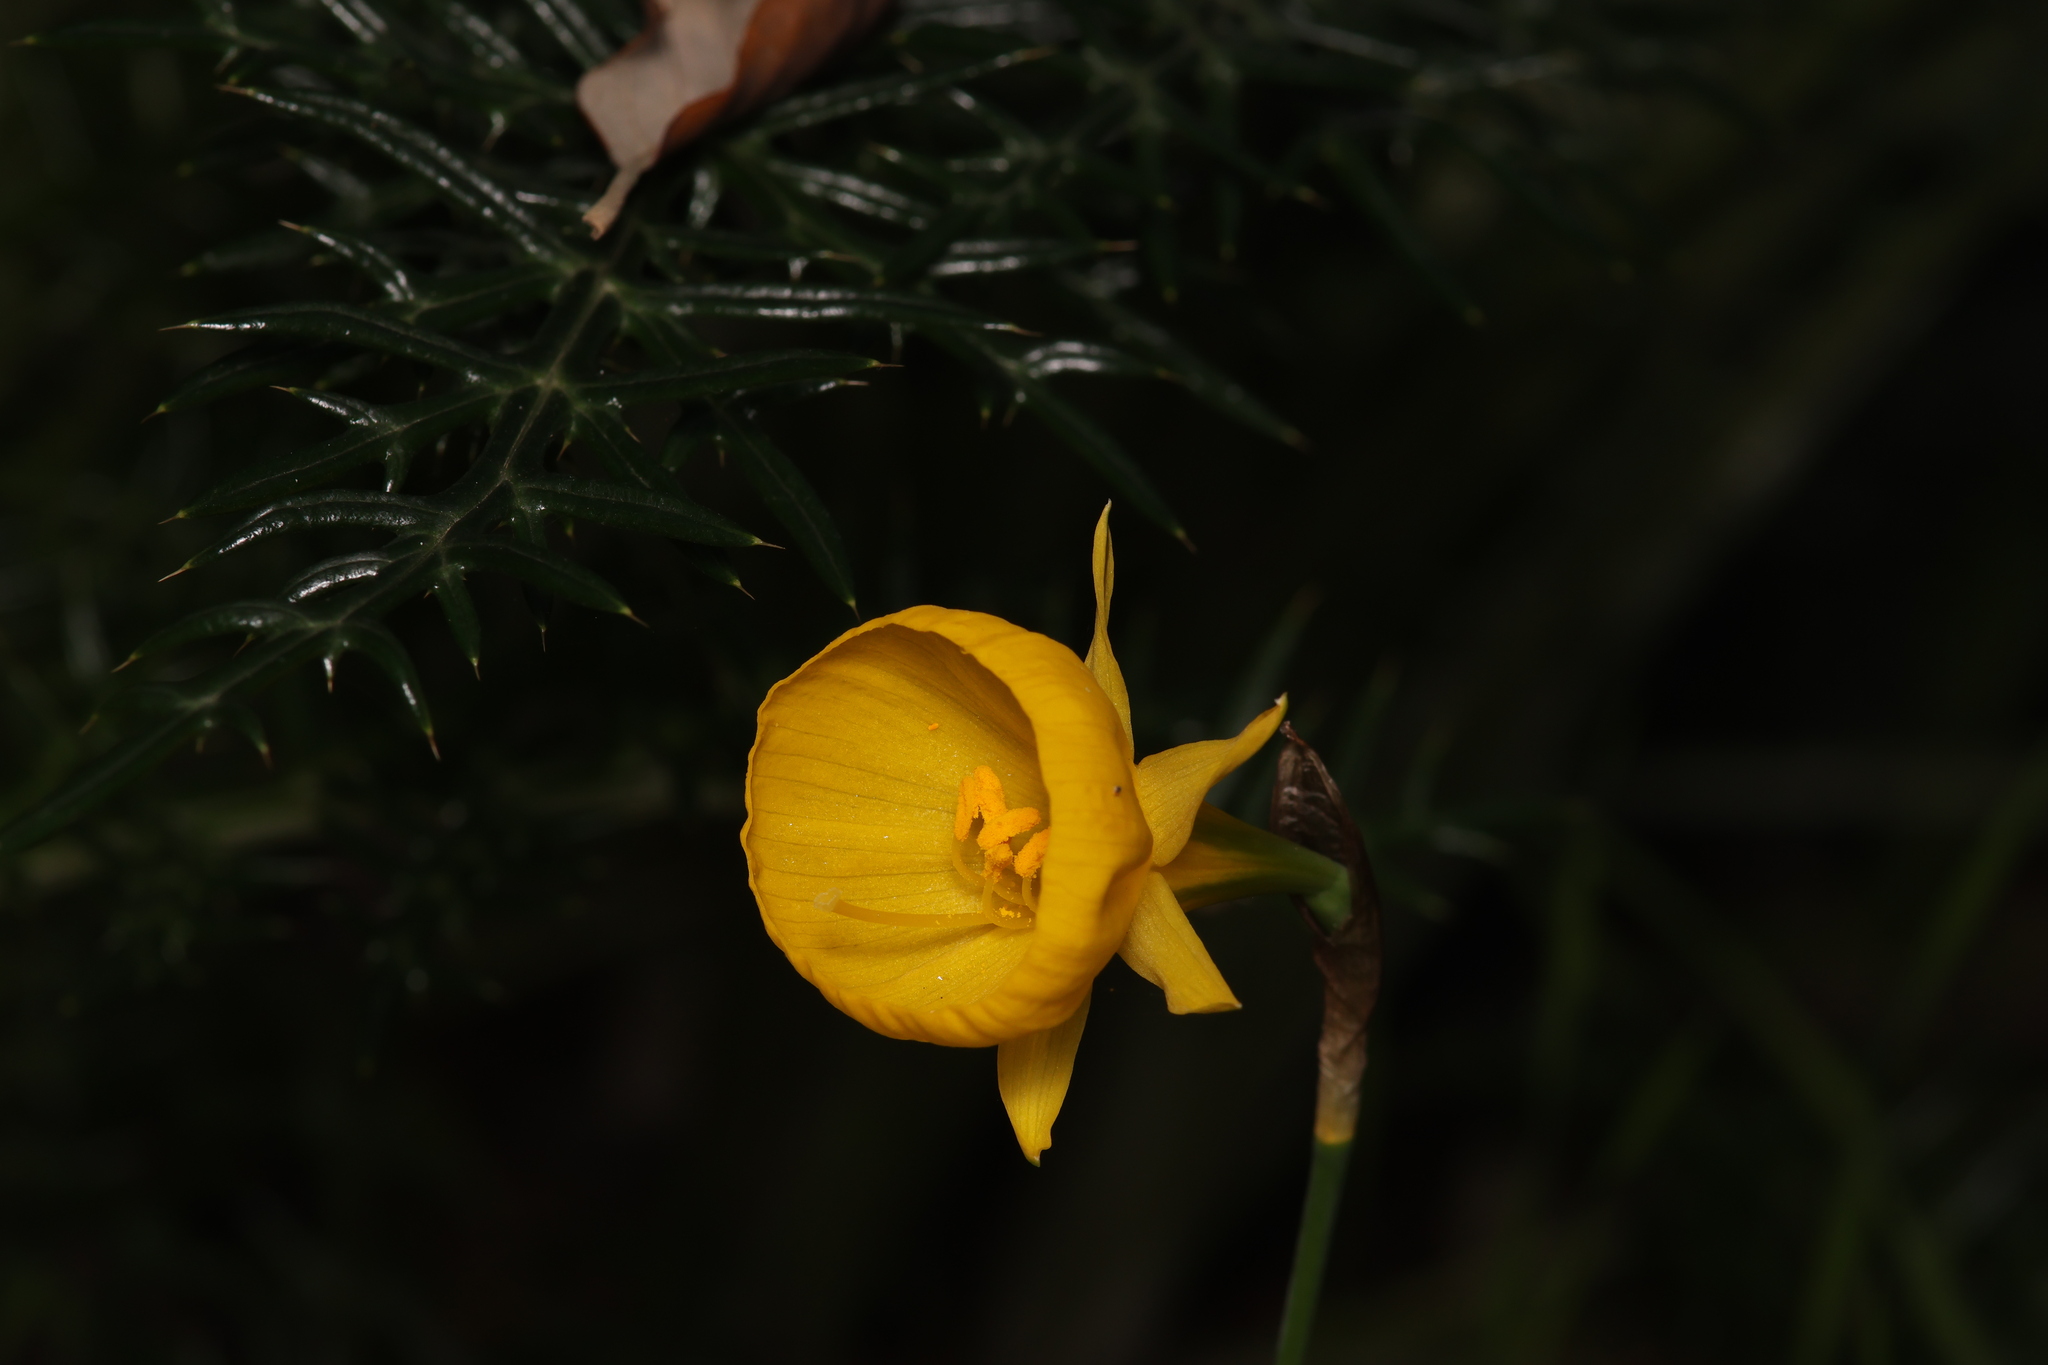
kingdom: Plantae
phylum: Tracheophyta
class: Liliopsida
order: Asparagales
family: Amaryllidaceae
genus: Narcissus
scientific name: Narcissus bulbocodium
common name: Hoop-petticoat daffodil
